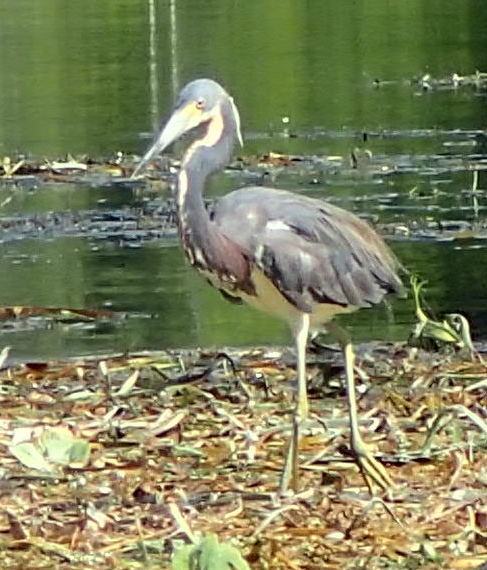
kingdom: Animalia
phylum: Chordata
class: Aves
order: Pelecaniformes
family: Ardeidae
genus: Egretta
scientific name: Egretta tricolor
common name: Tricolored heron
